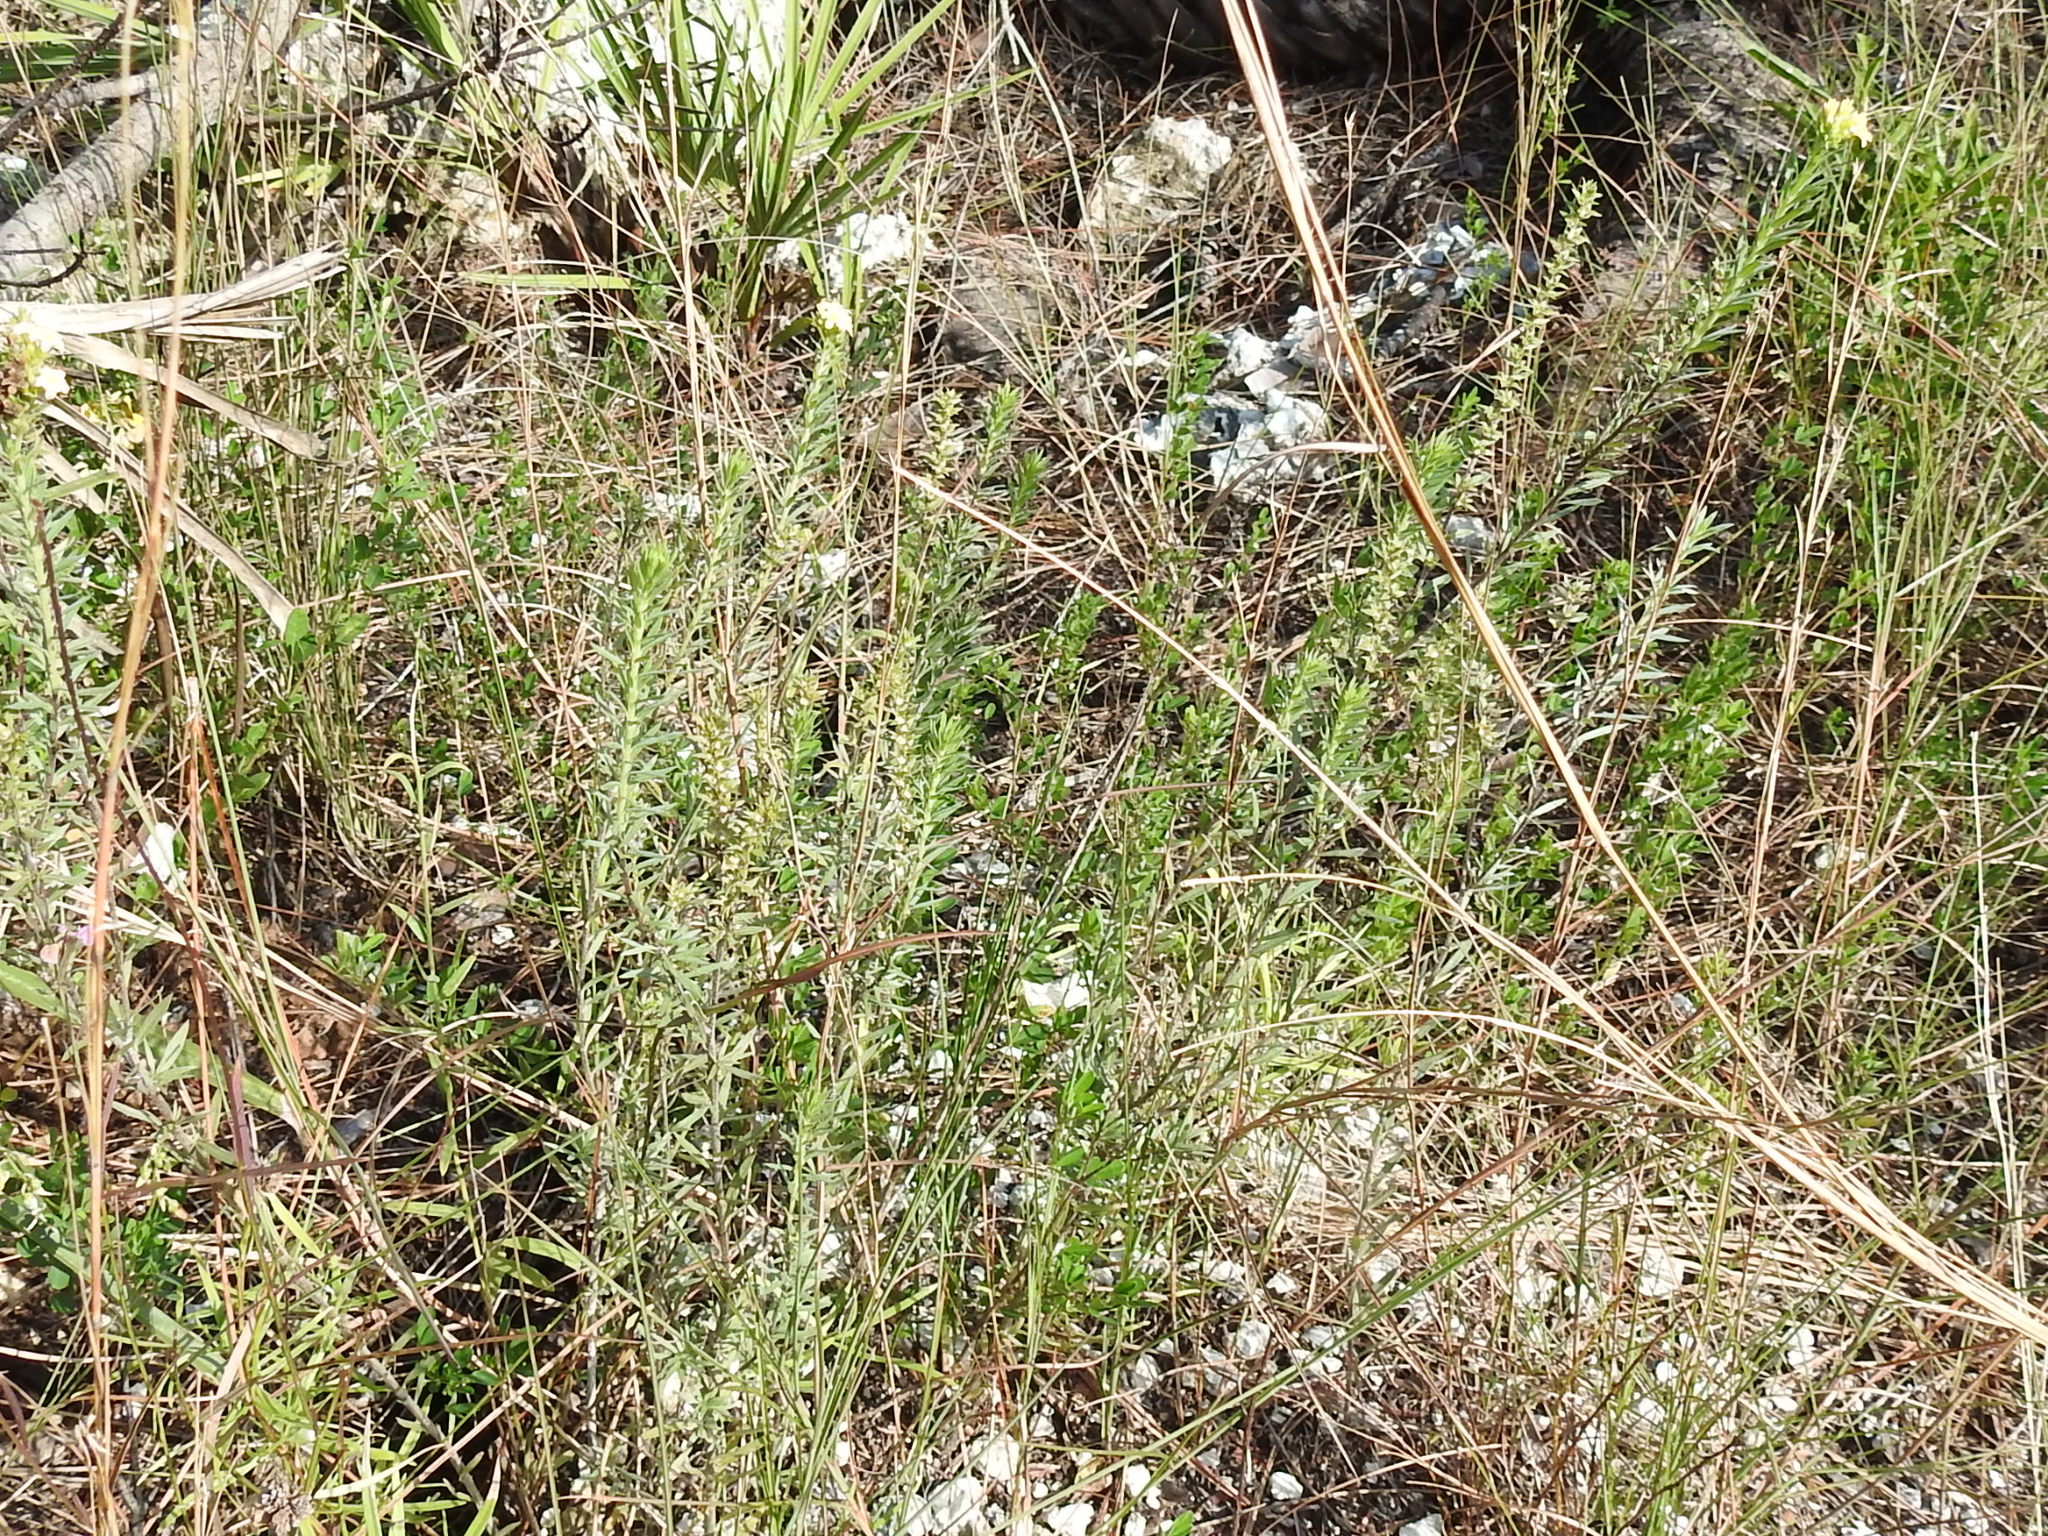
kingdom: Plantae
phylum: Tracheophyta
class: Magnoliopsida
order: Boraginales
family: Heliotropiaceae
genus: Euploca
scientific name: Euploca polyphylla
